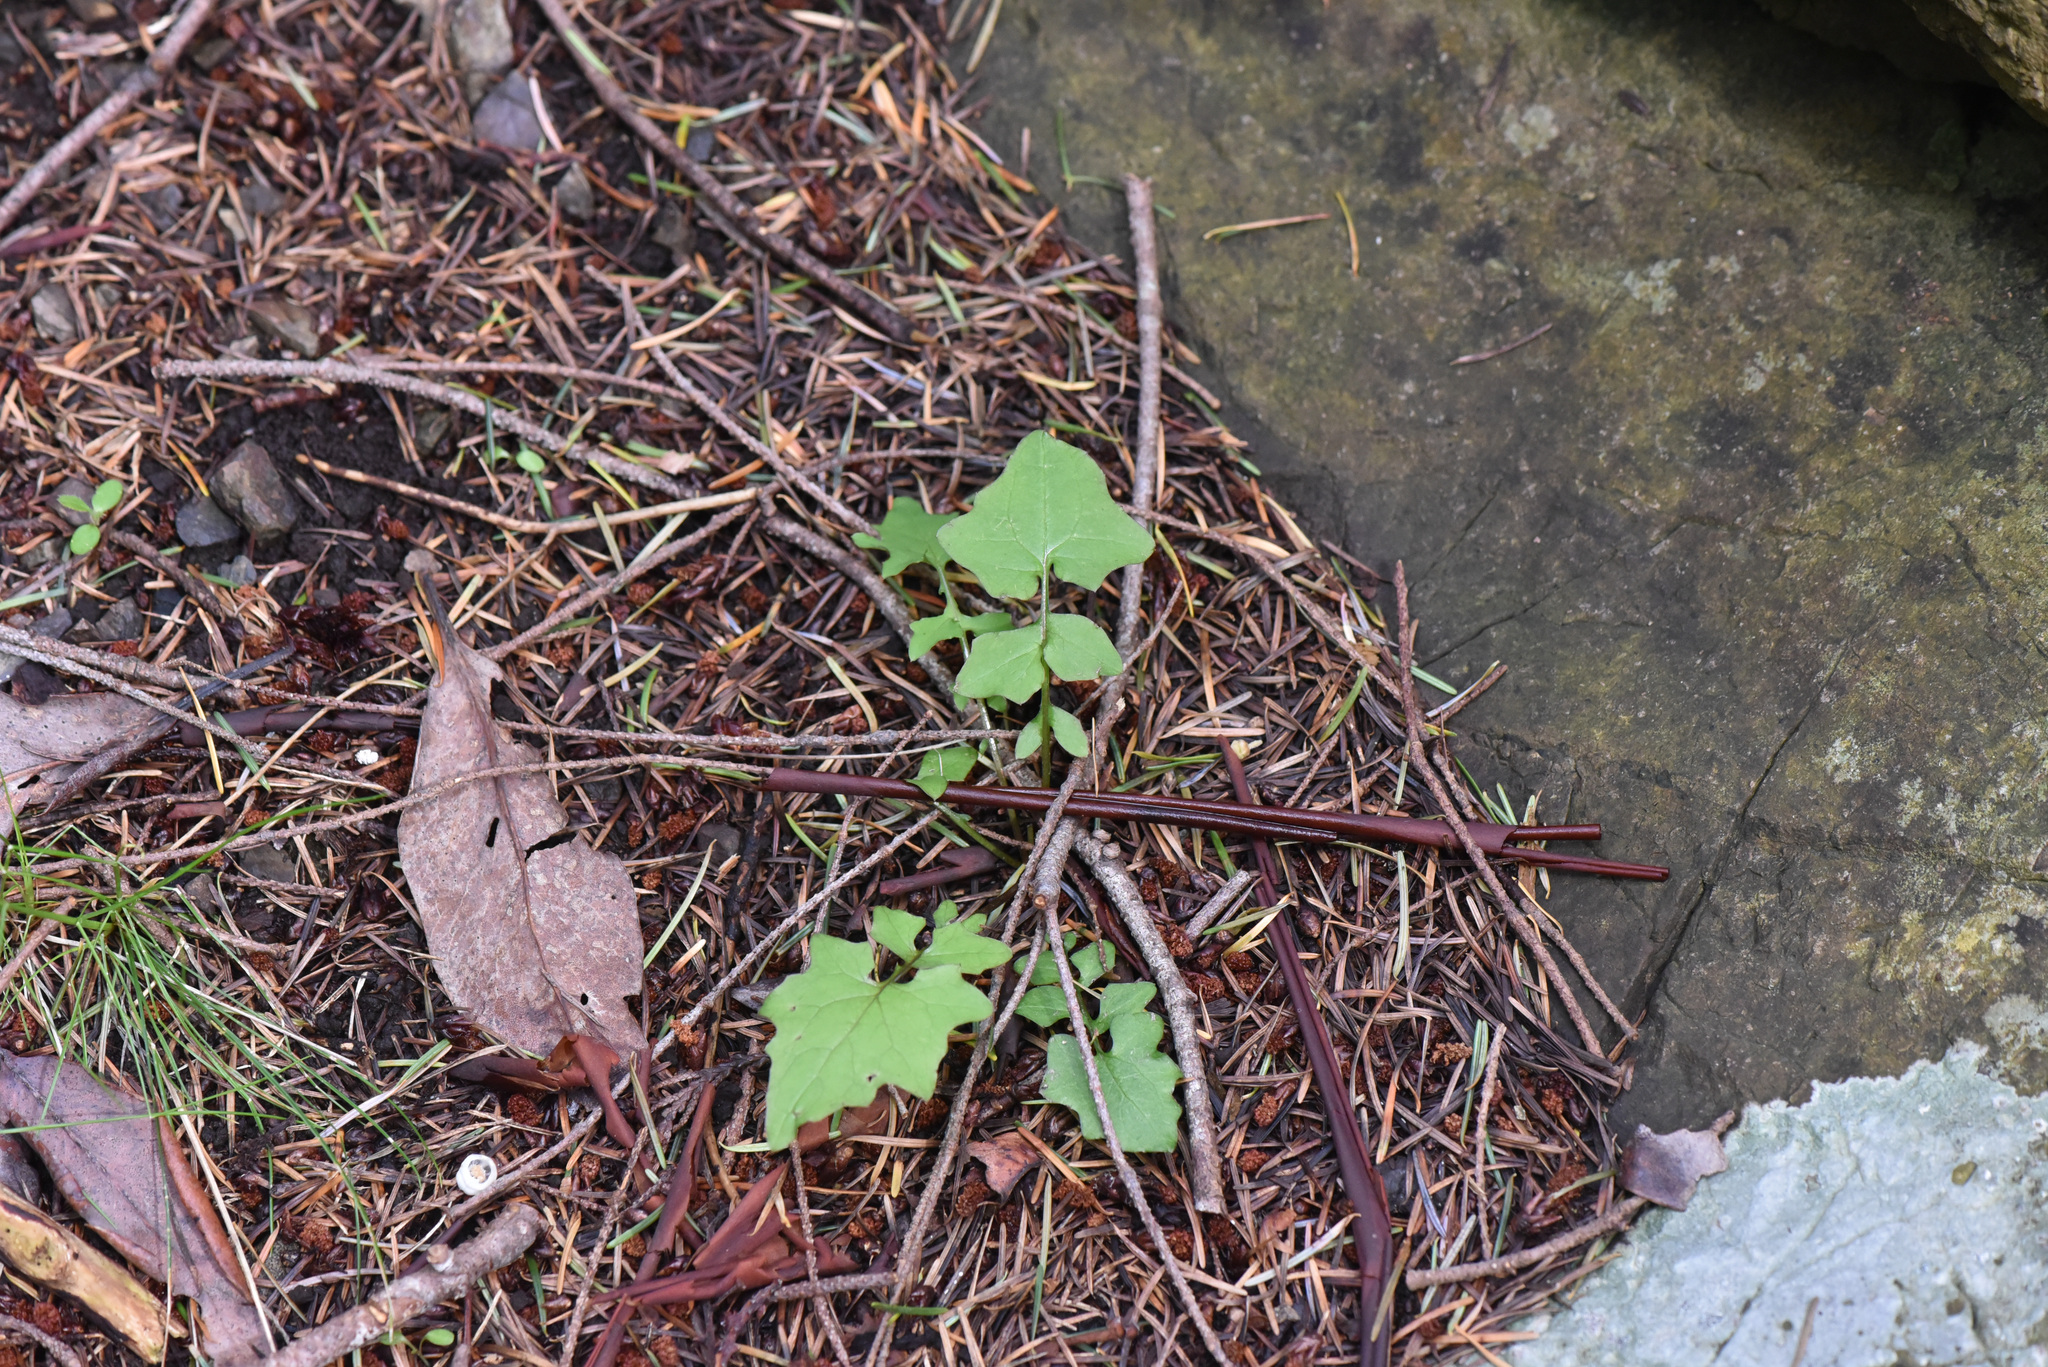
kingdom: Plantae
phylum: Tracheophyta
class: Magnoliopsida
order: Asterales
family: Asteraceae
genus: Mycelis
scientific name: Mycelis muralis
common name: Wall lettuce
